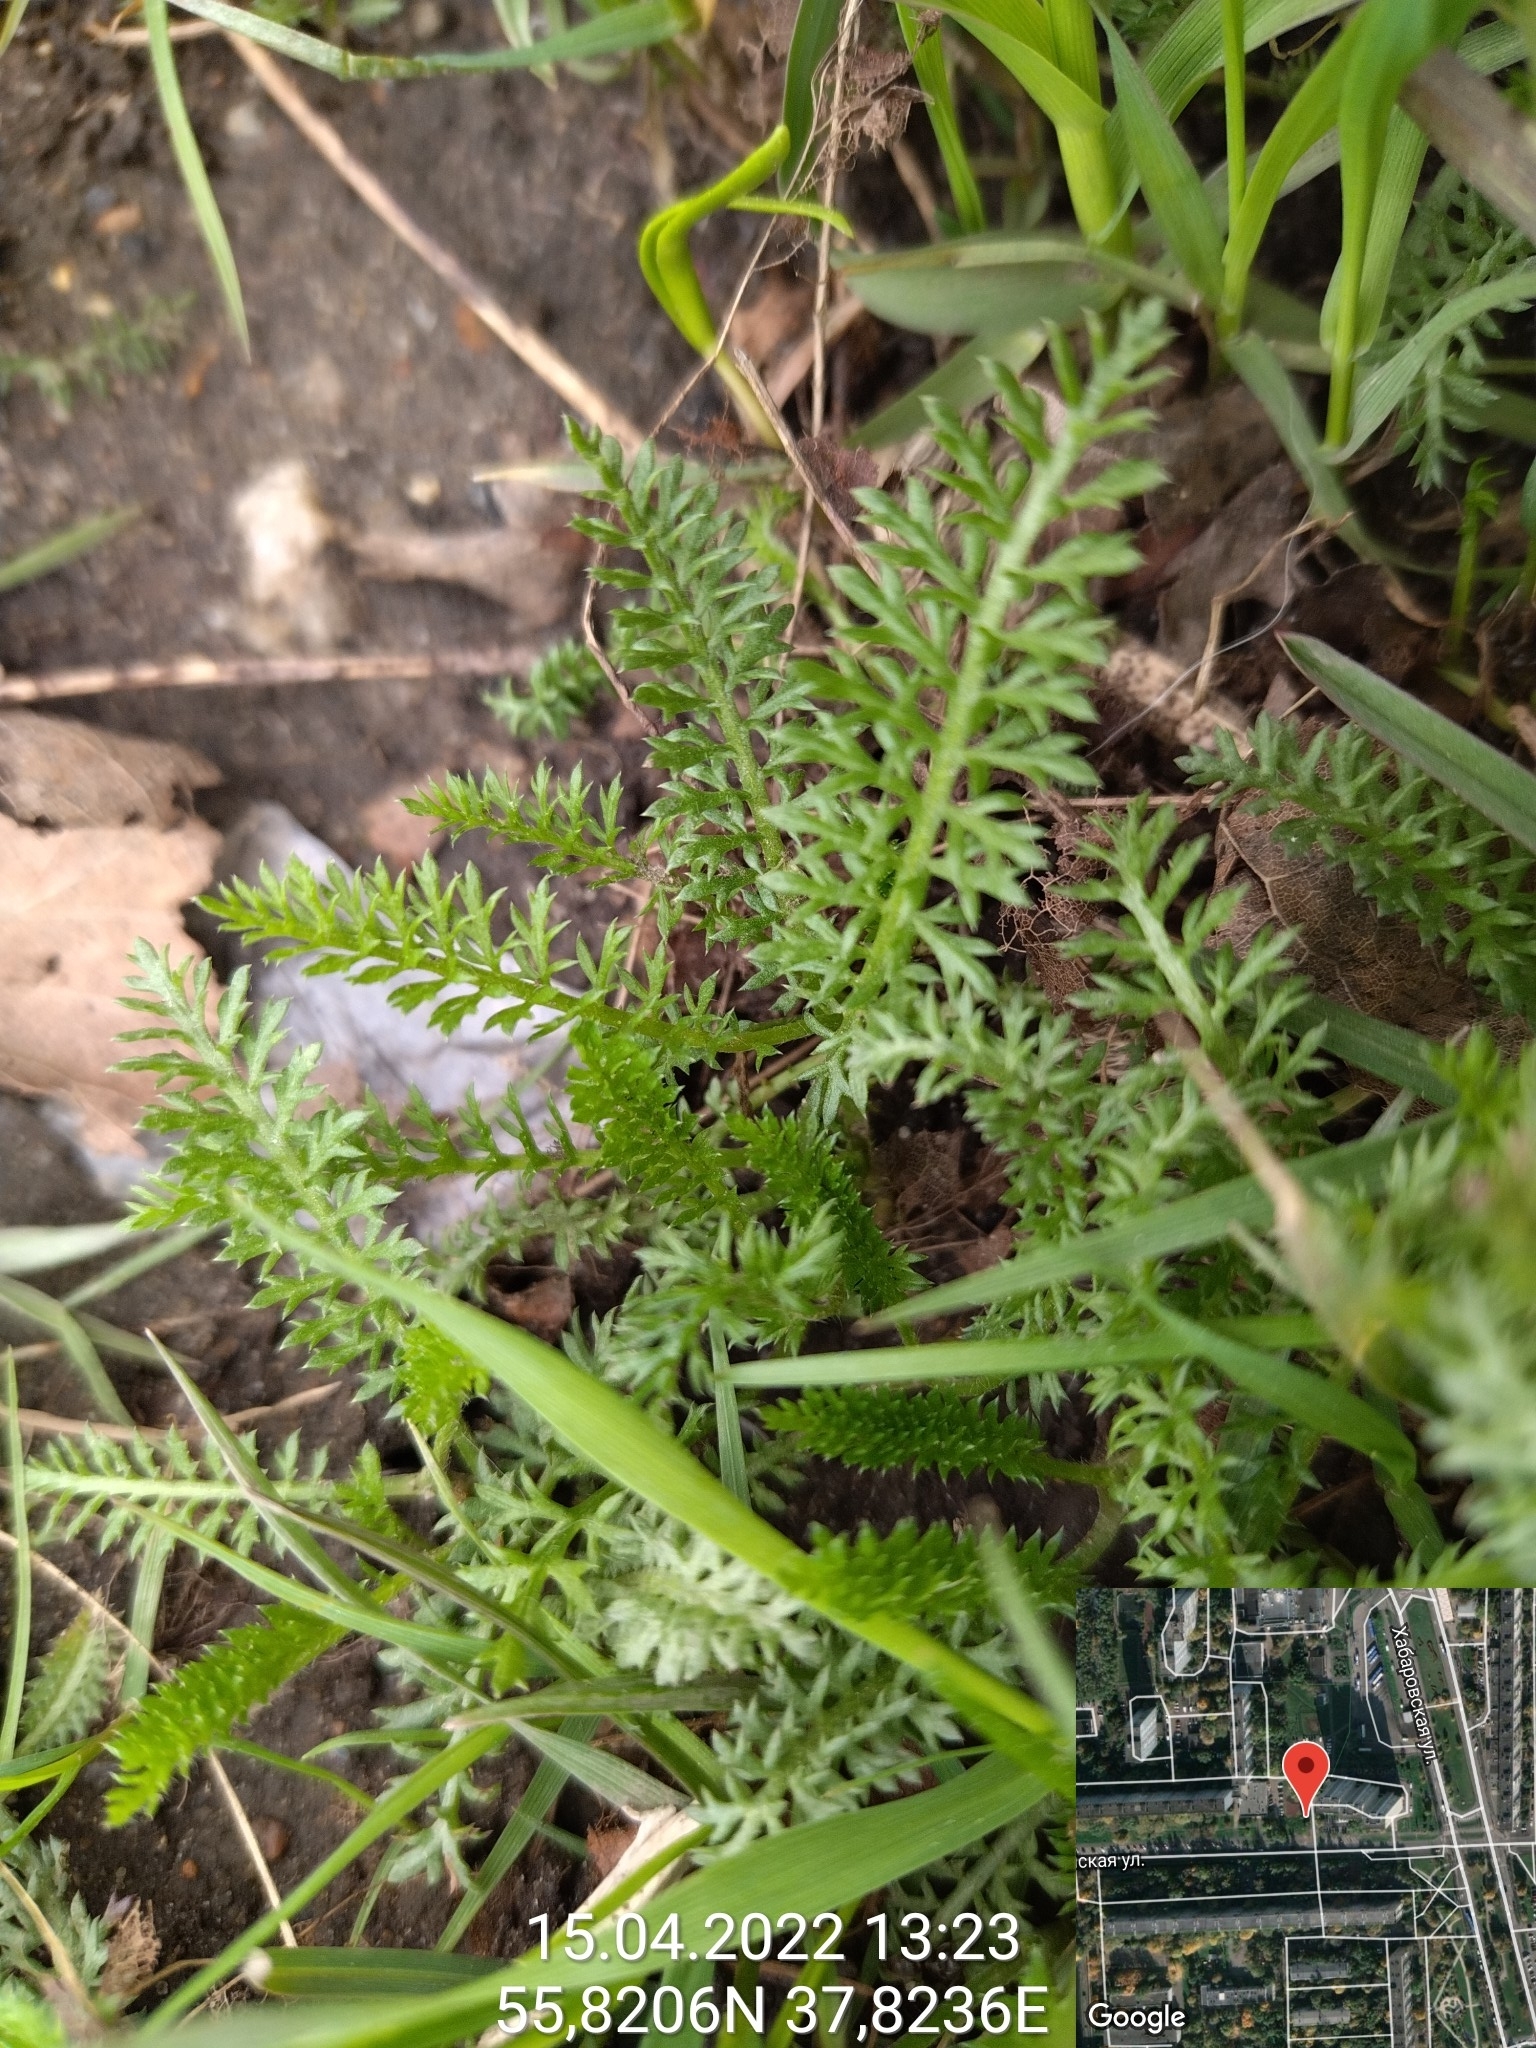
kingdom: Plantae
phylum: Tracheophyta
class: Magnoliopsida
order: Asterales
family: Asteraceae
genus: Achillea
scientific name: Achillea millefolium
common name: Yarrow
